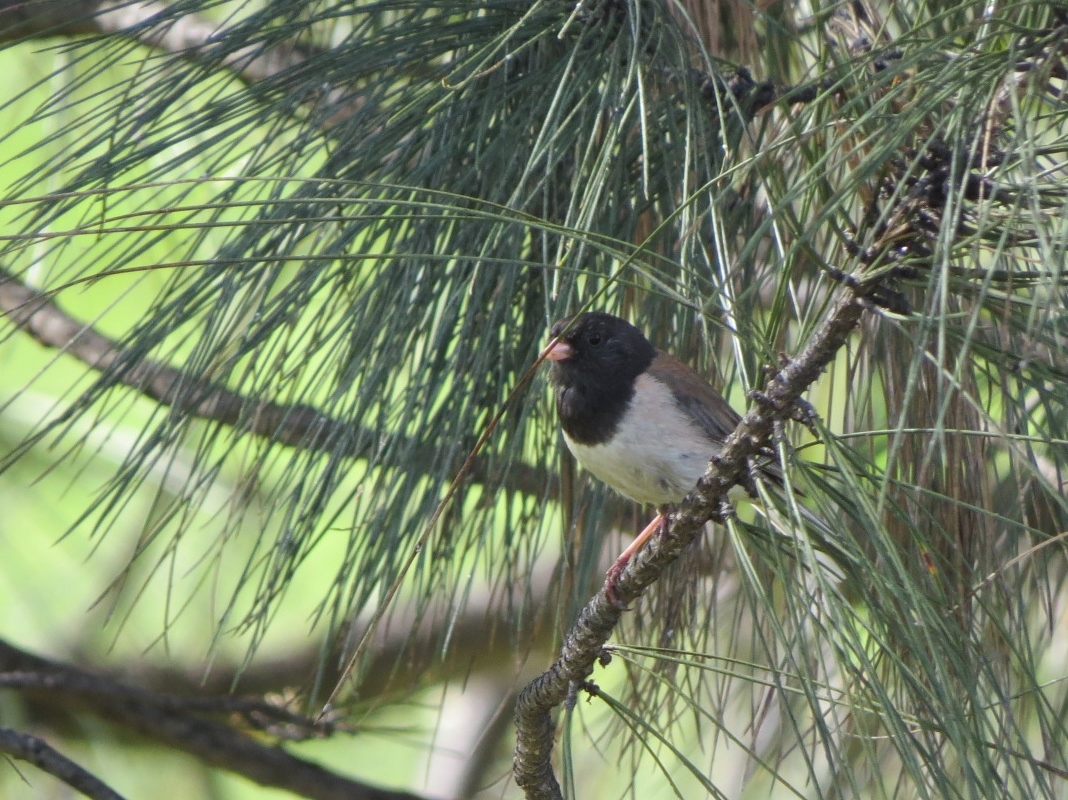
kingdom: Animalia
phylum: Chordata
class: Aves
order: Passeriformes
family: Passerellidae
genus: Junco
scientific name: Junco hyemalis
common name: Dark-eyed junco
